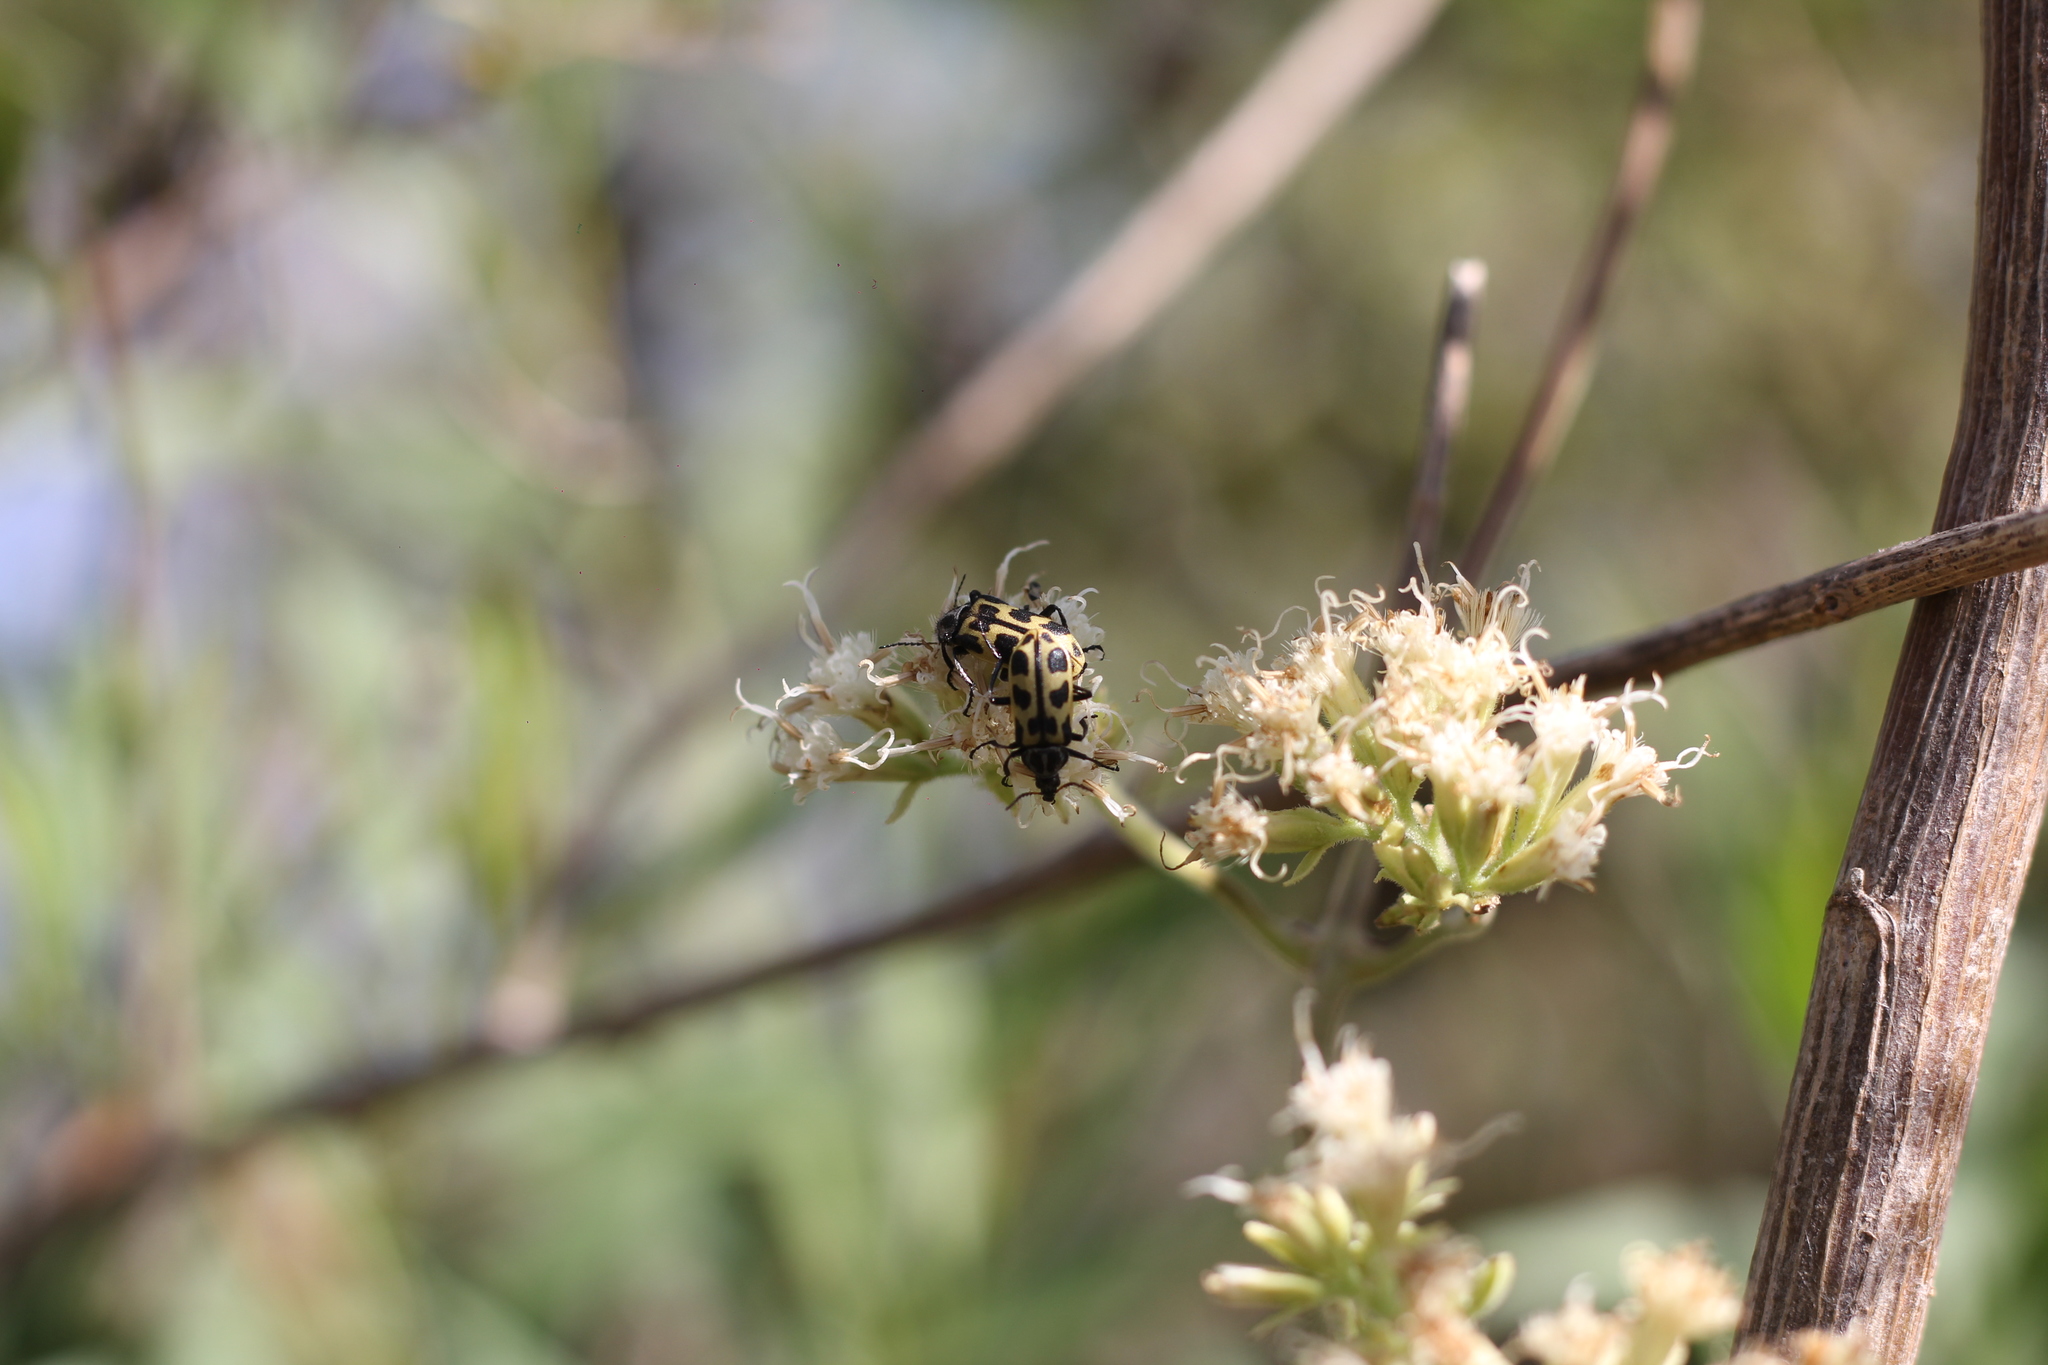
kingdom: Animalia
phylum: Arthropoda
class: Insecta
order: Coleoptera
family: Melyridae
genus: Astylus
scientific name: Astylus atromaculatus
